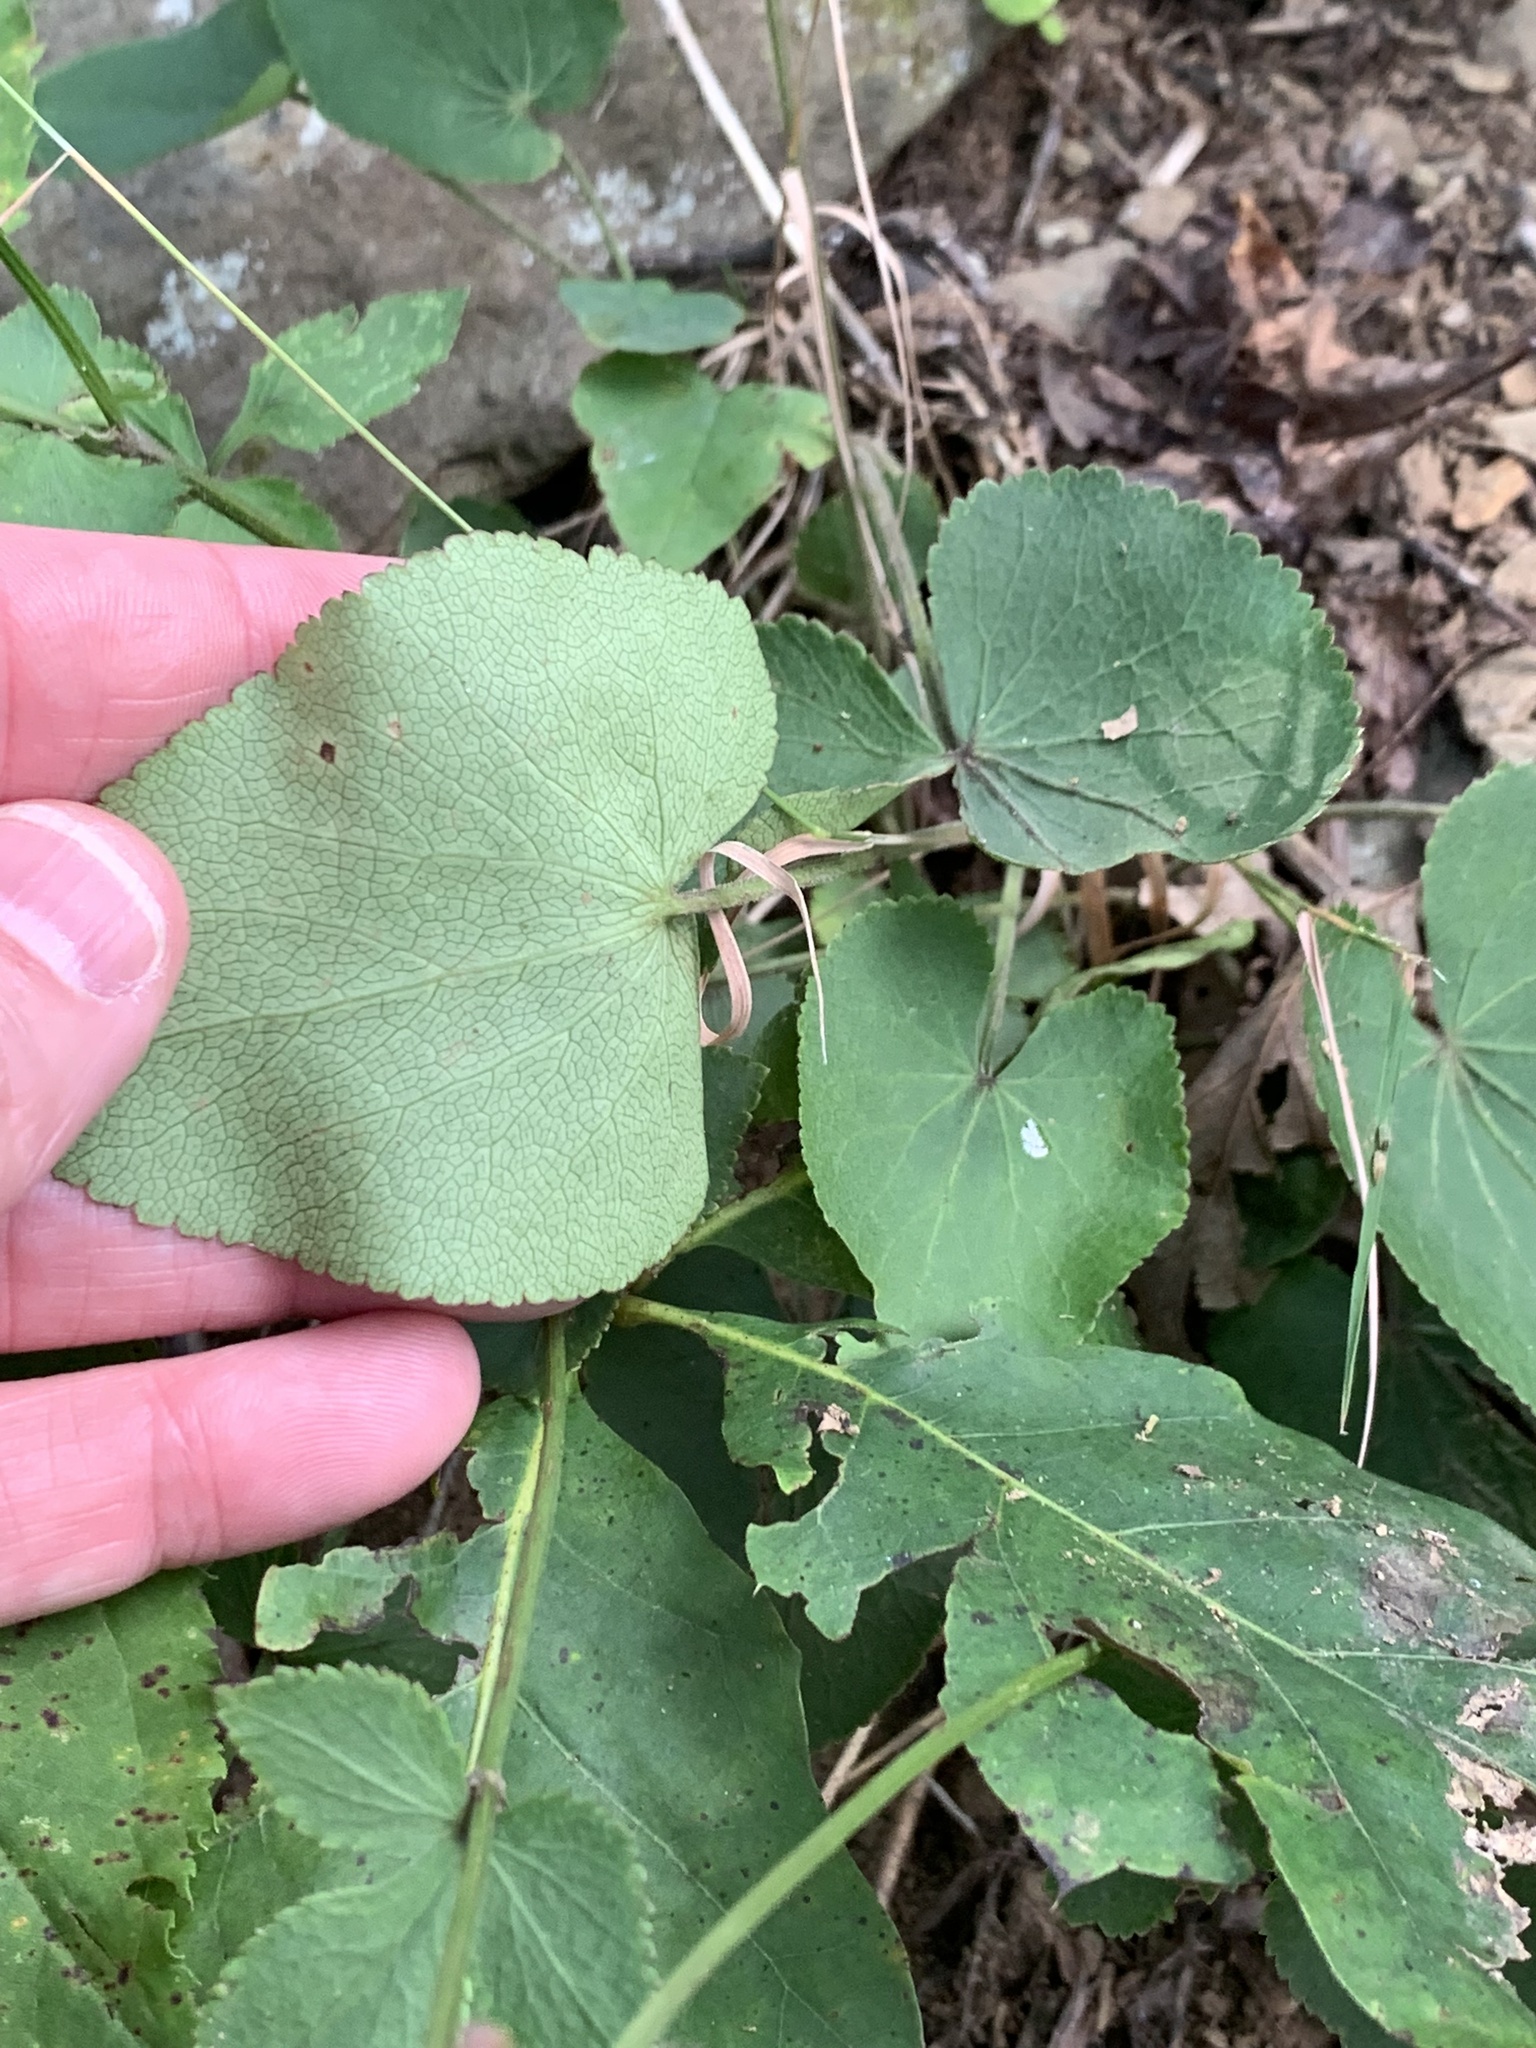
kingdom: Plantae
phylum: Tracheophyta
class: Magnoliopsida
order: Apiales
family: Apiaceae
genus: Zizia
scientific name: Zizia aptera
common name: Heart-leaved alexanders
